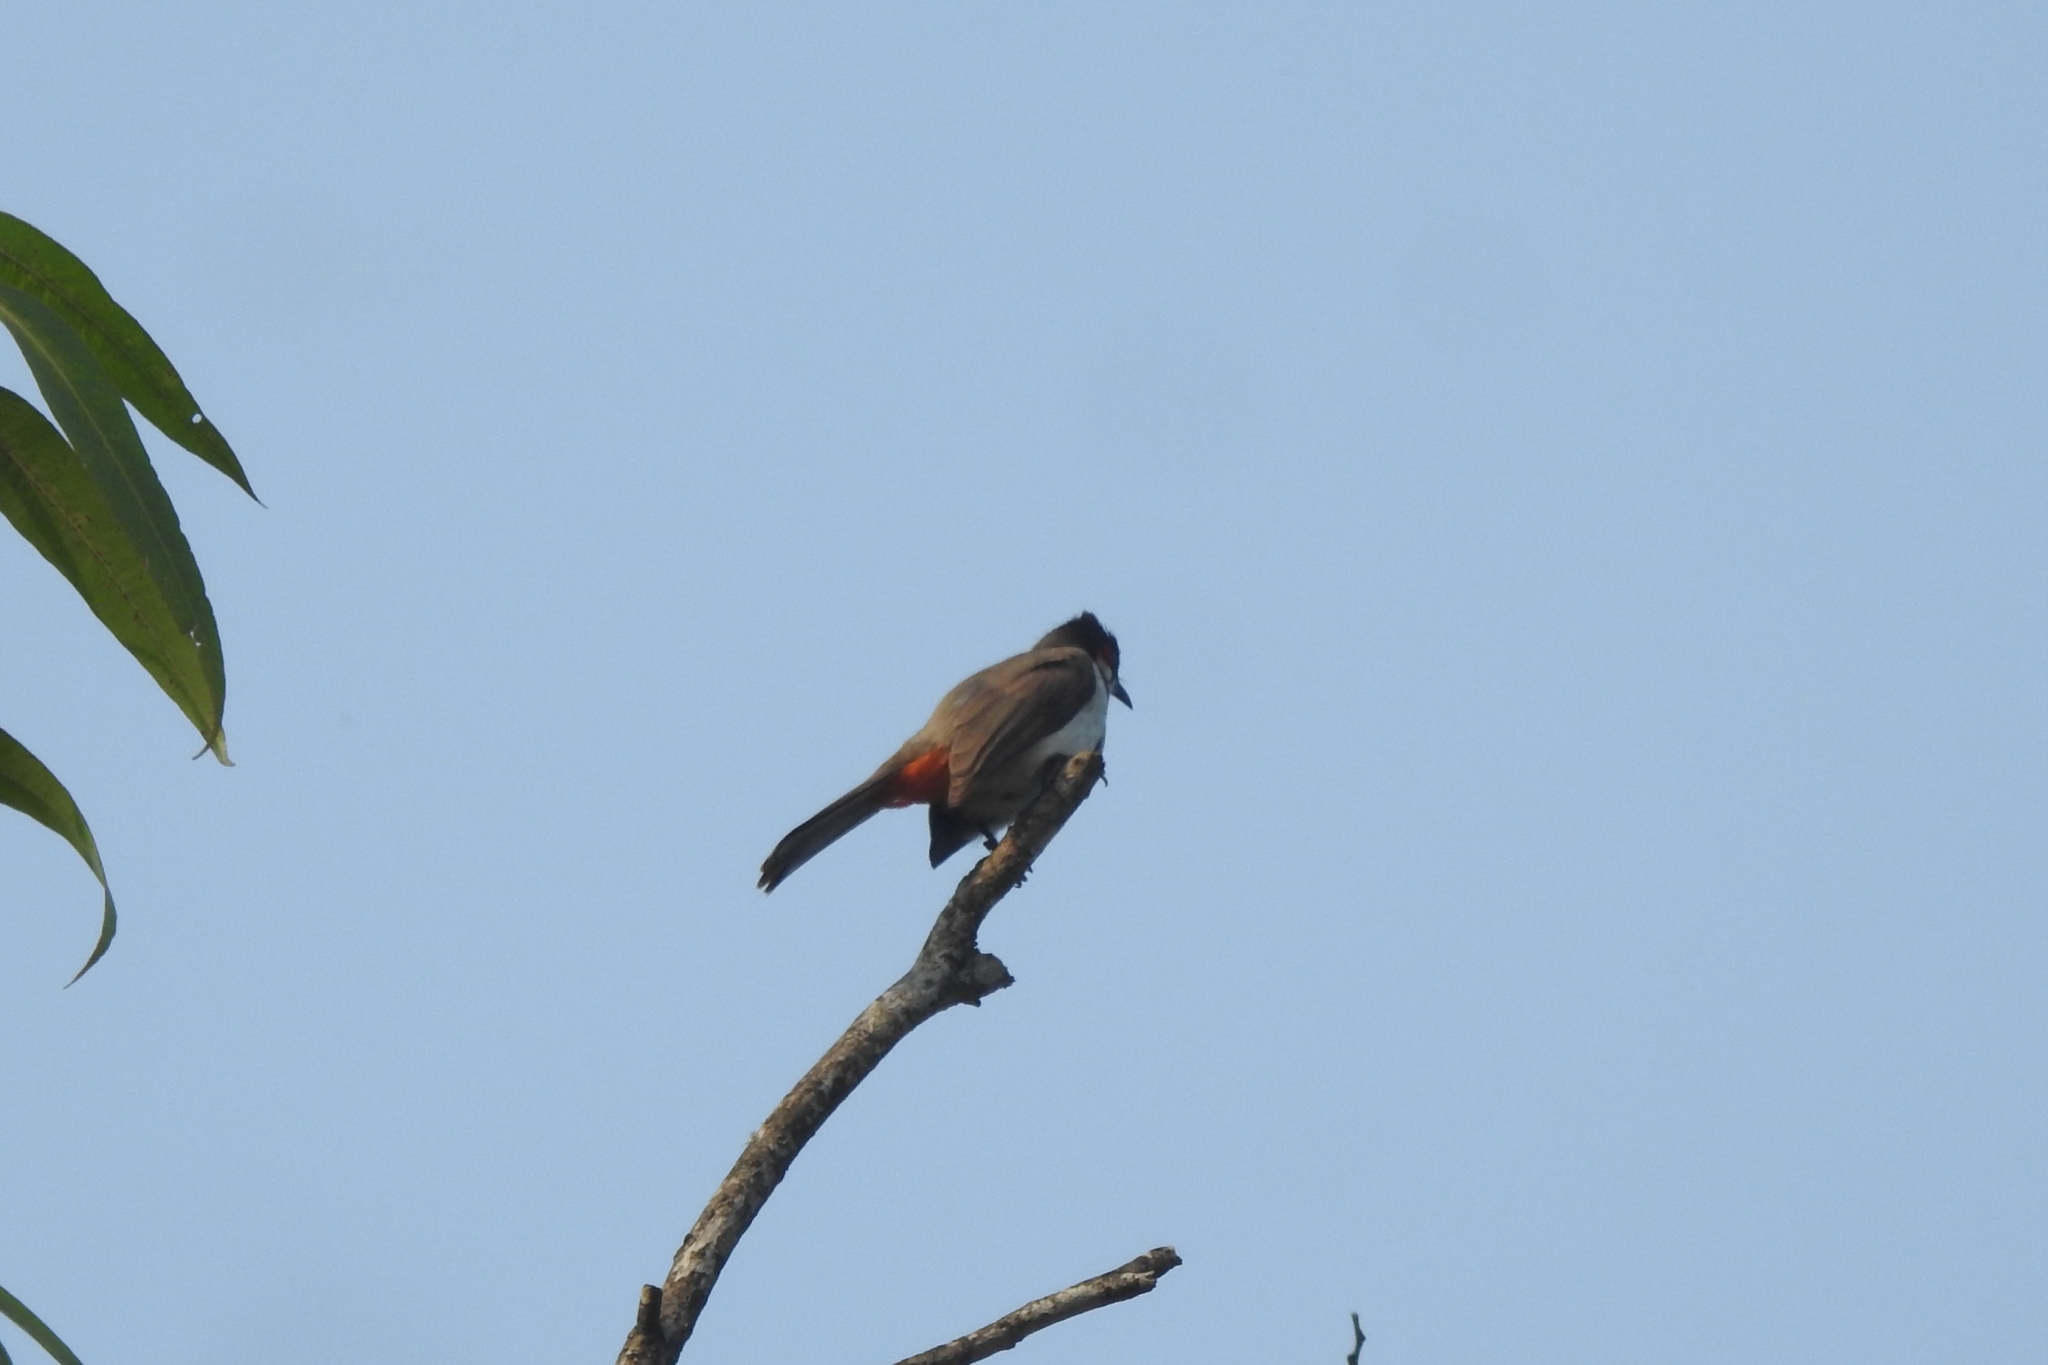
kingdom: Animalia
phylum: Chordata
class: Aves
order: Passeriformes
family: Pycnonotidae
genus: Pycnonotus
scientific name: Pycnonotus jocosus
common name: Red-whiskered bulbul
